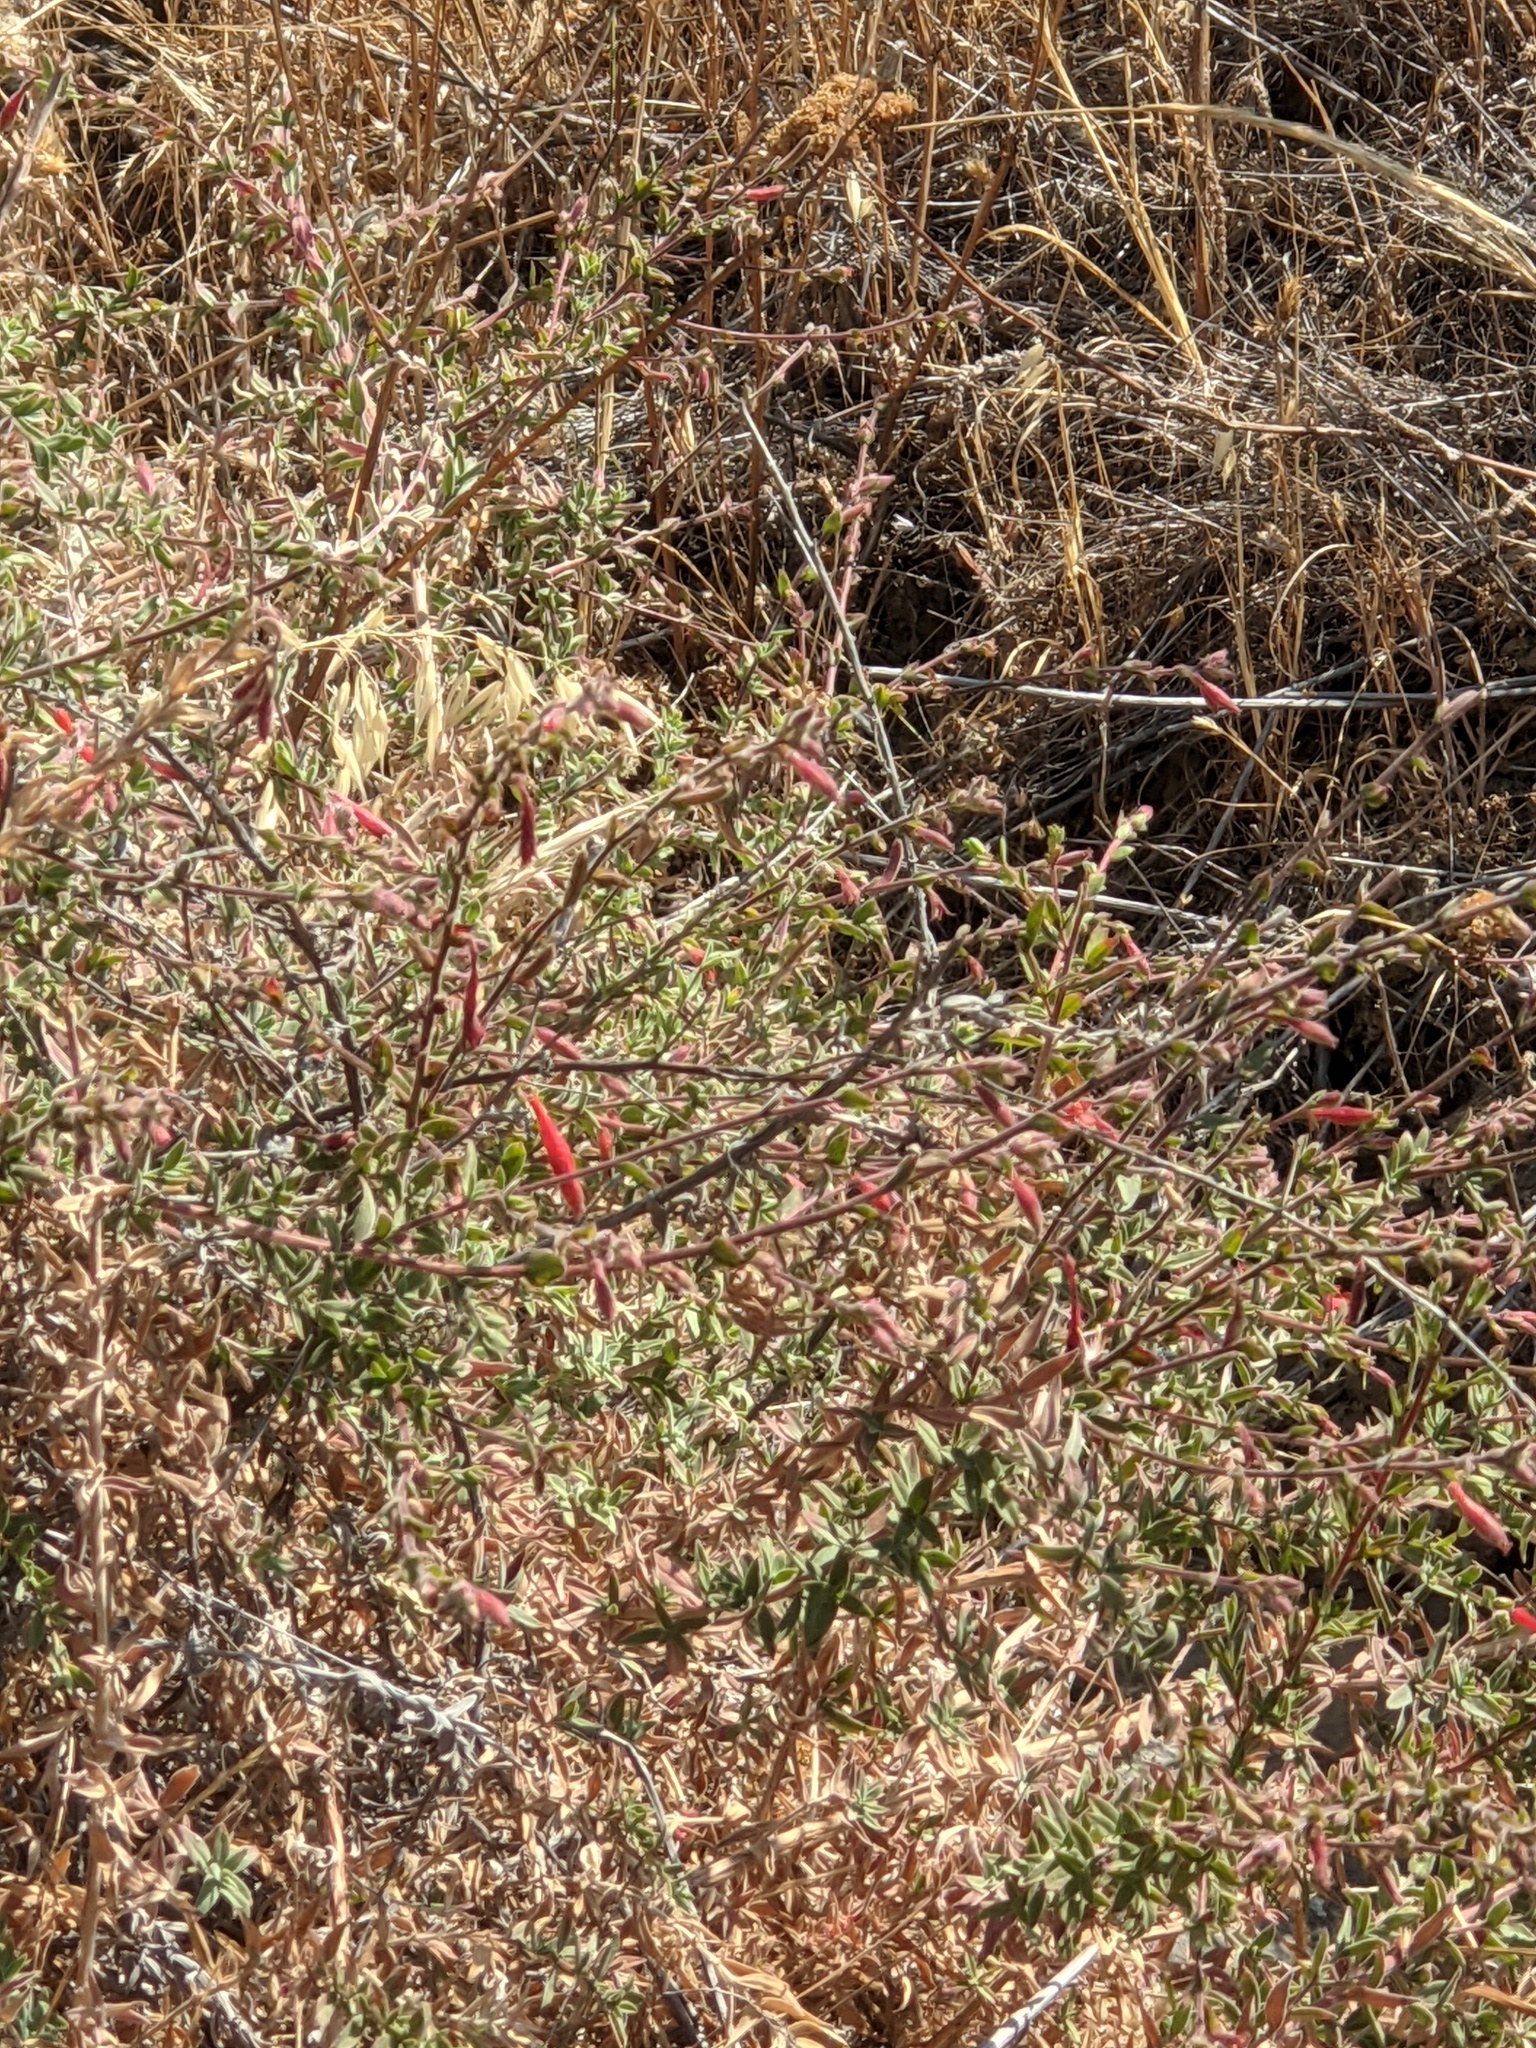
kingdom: Plantae
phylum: Tracheophyta
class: Magnoliopsida
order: Myrtales
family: Onagraceae
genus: Epilobium
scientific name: Epilobium canum
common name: California-fuchsia
